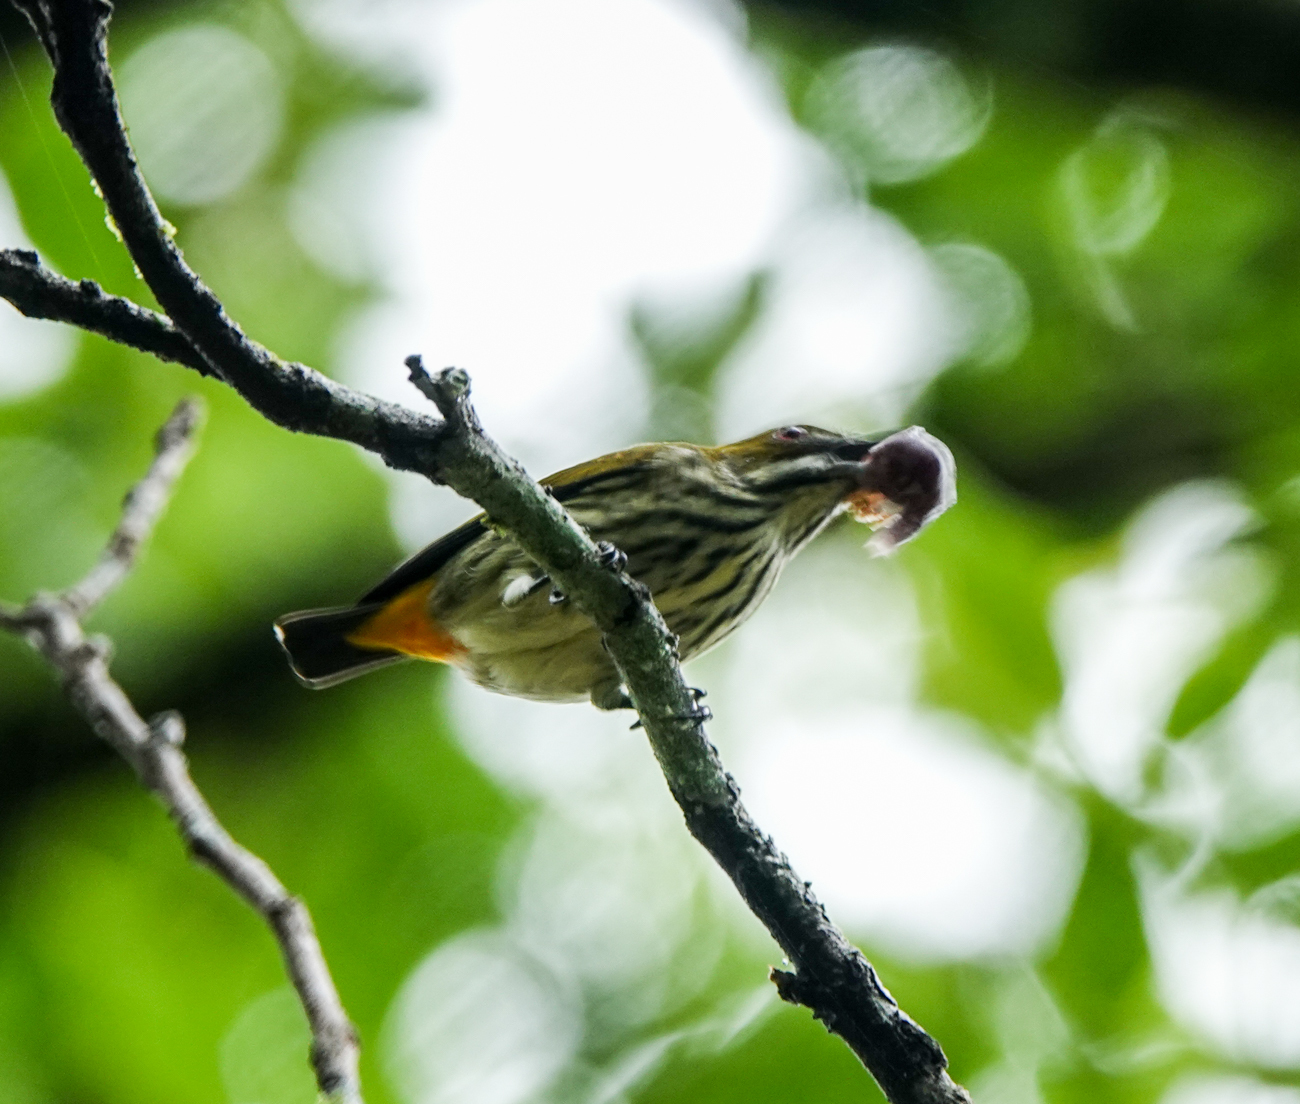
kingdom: Animalia
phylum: Chordata
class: Aves
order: Passeriformes
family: Dicaeidae
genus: Dicaeum
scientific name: Dicaeum chrysorrheum
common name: Yellow-vented flowerpecker
